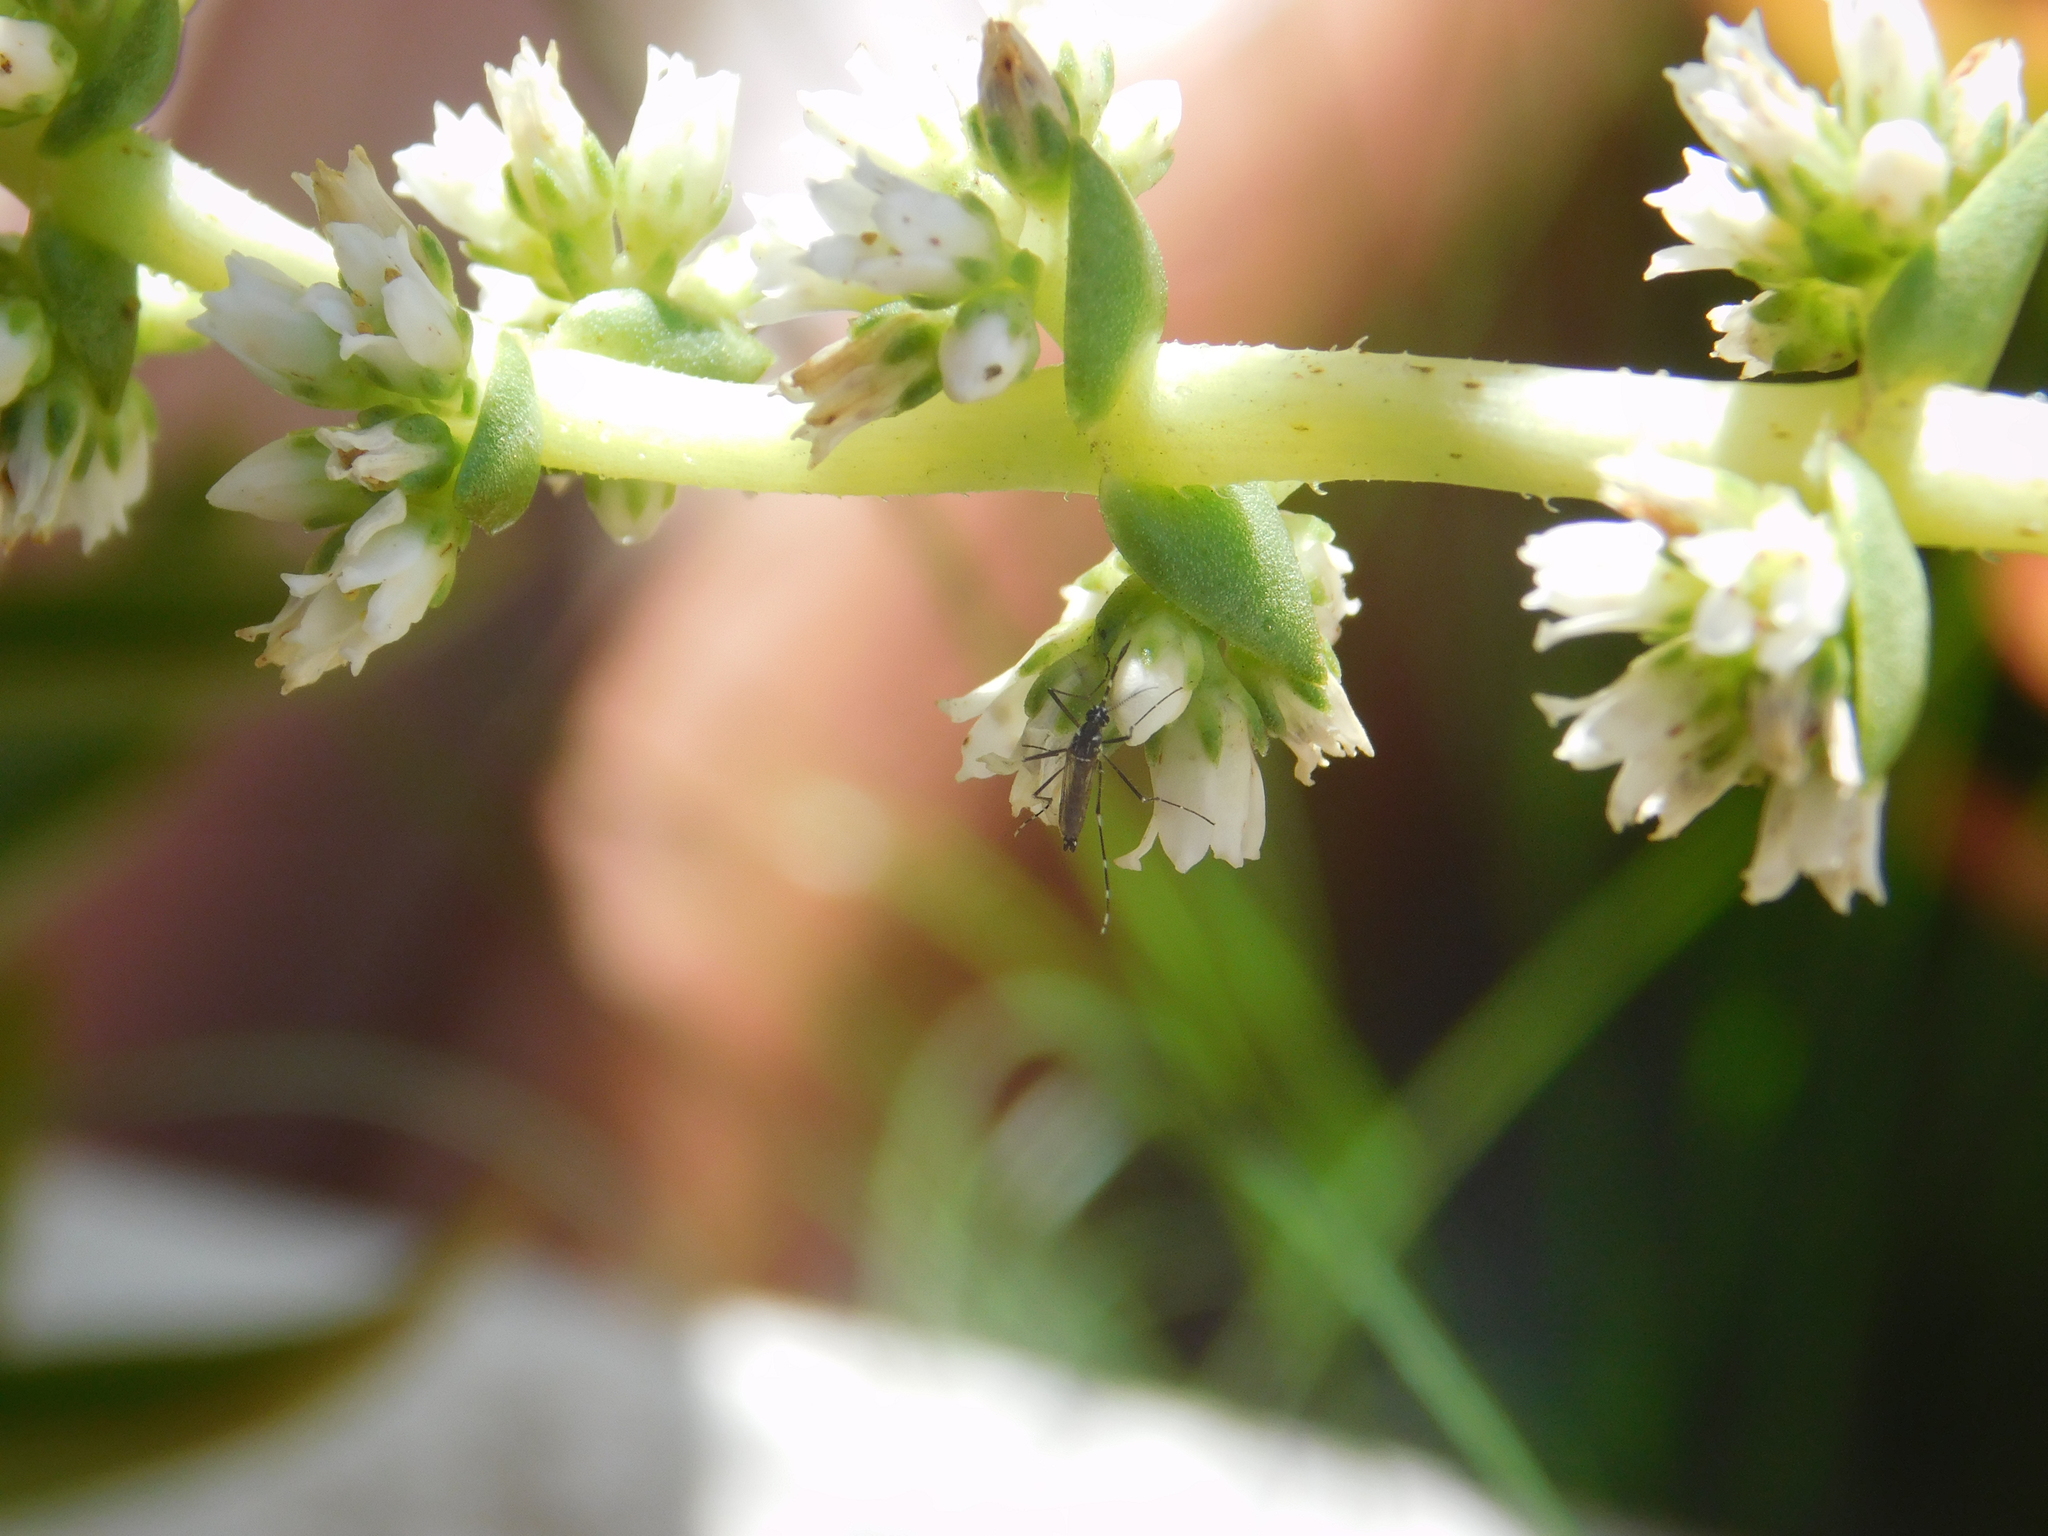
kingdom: Animalia
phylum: Arthropoda
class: Insecta
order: Diptera
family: Culicidae
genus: Aedes
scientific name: Aedes aegypti
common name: Yellow fever mosquito
